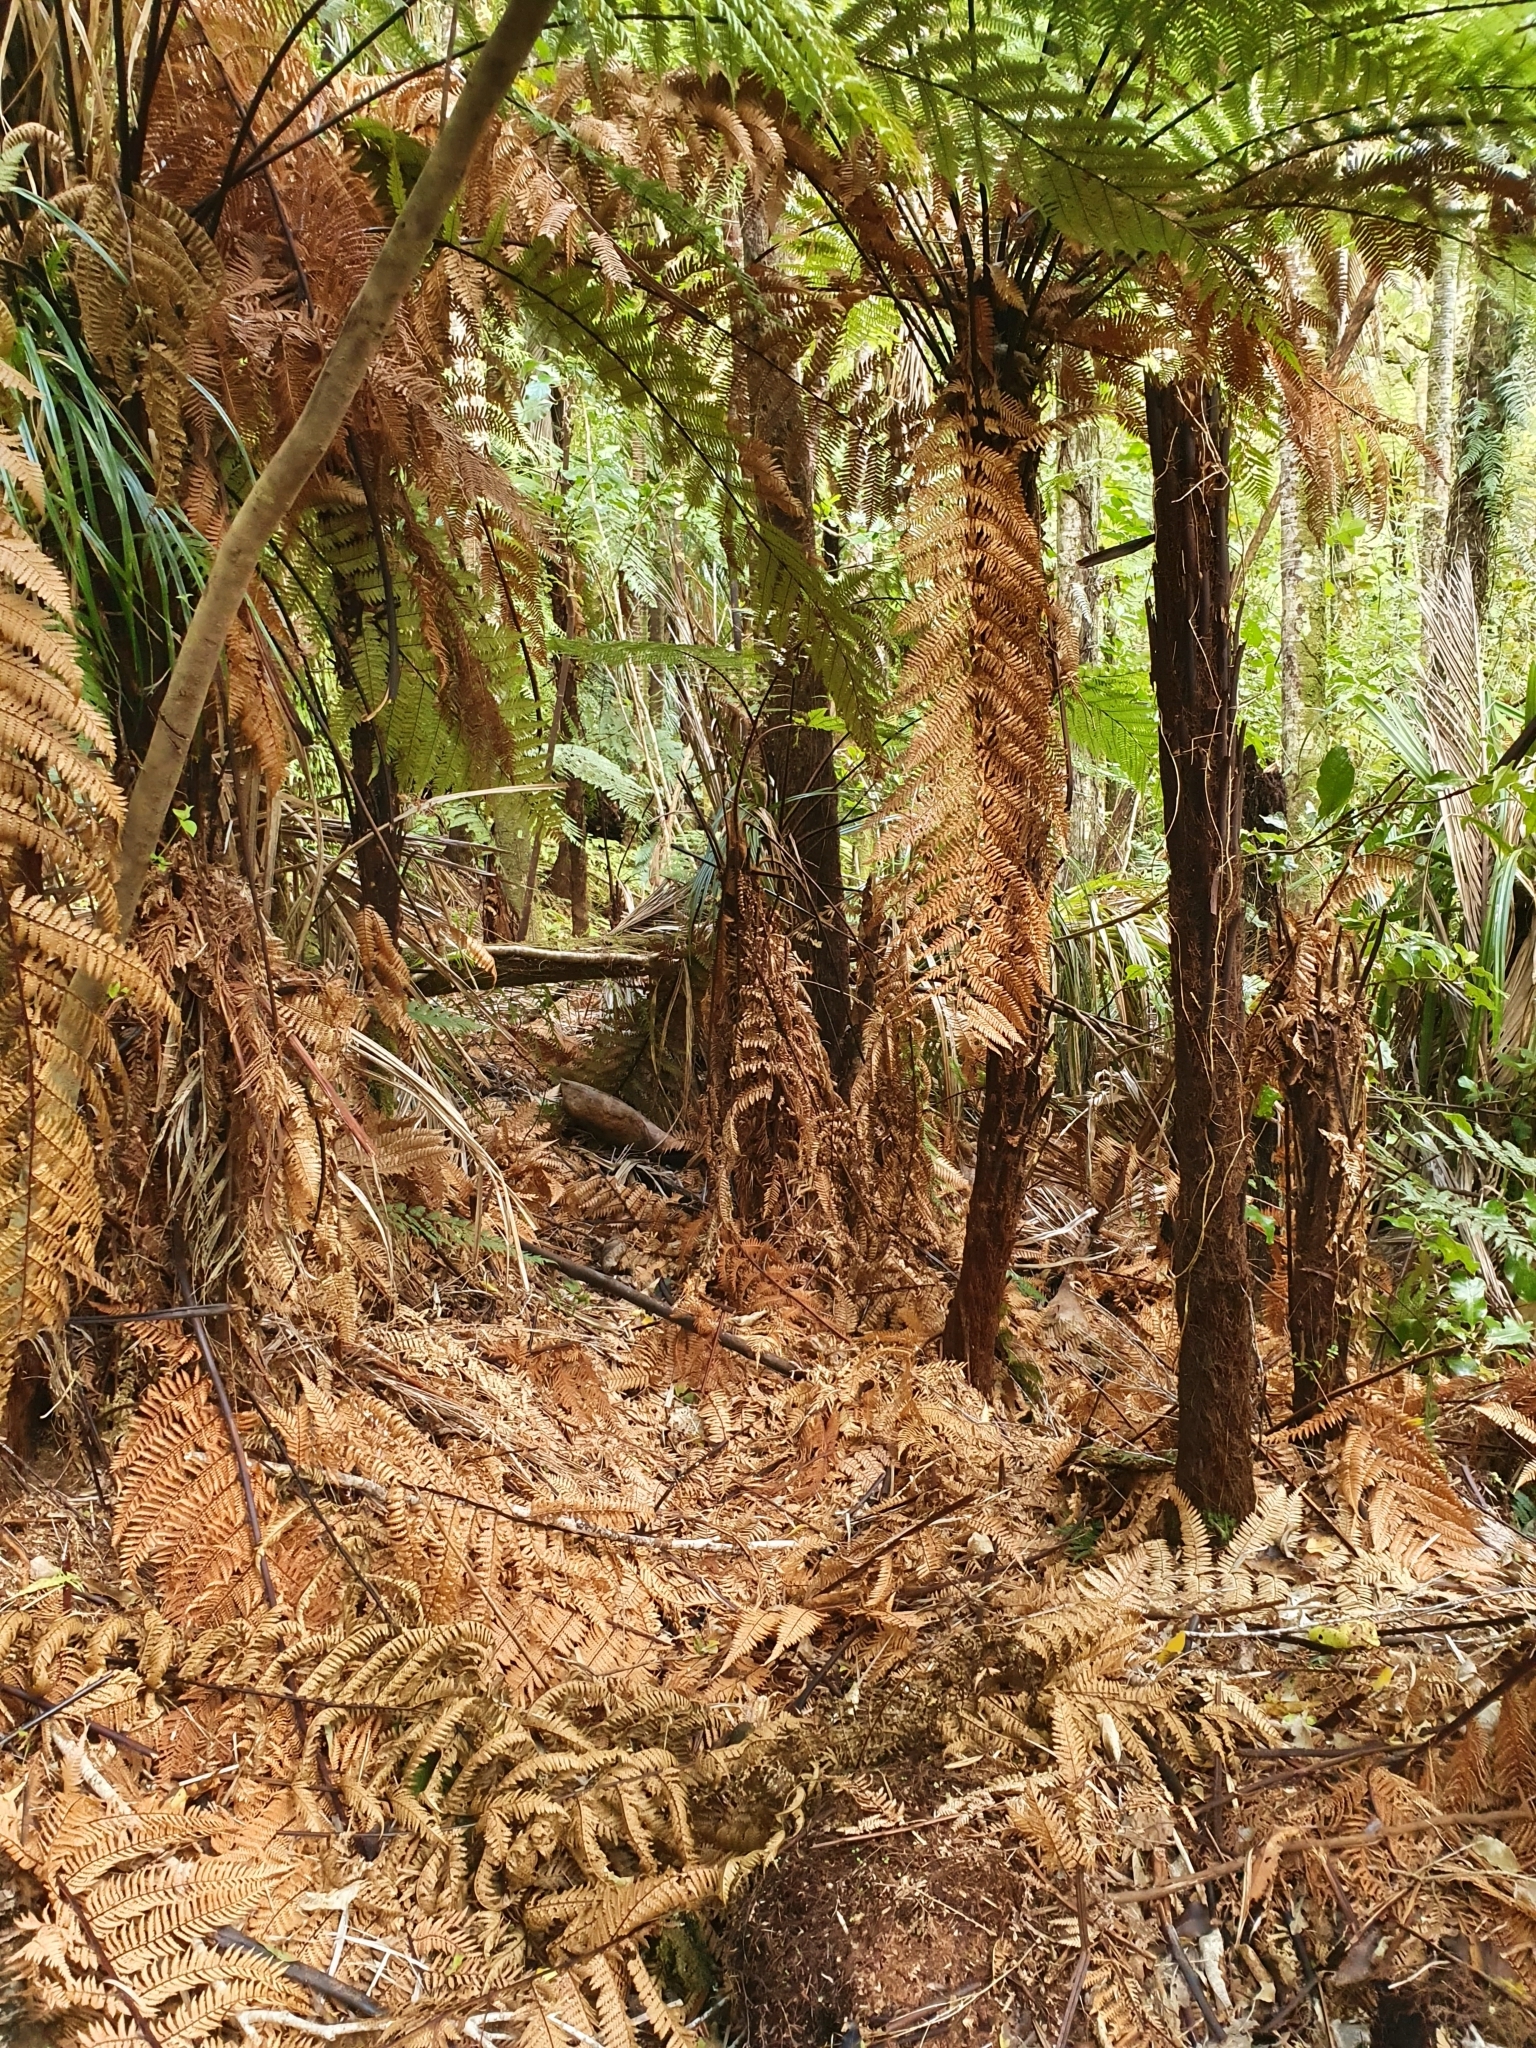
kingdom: Plantae
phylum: Tracheophyta
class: Polypodiopsida
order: Cyatheales
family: Dicksoniaceae
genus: Dicksonia
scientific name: Dicksonia squarrosa
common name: Hard treefern
